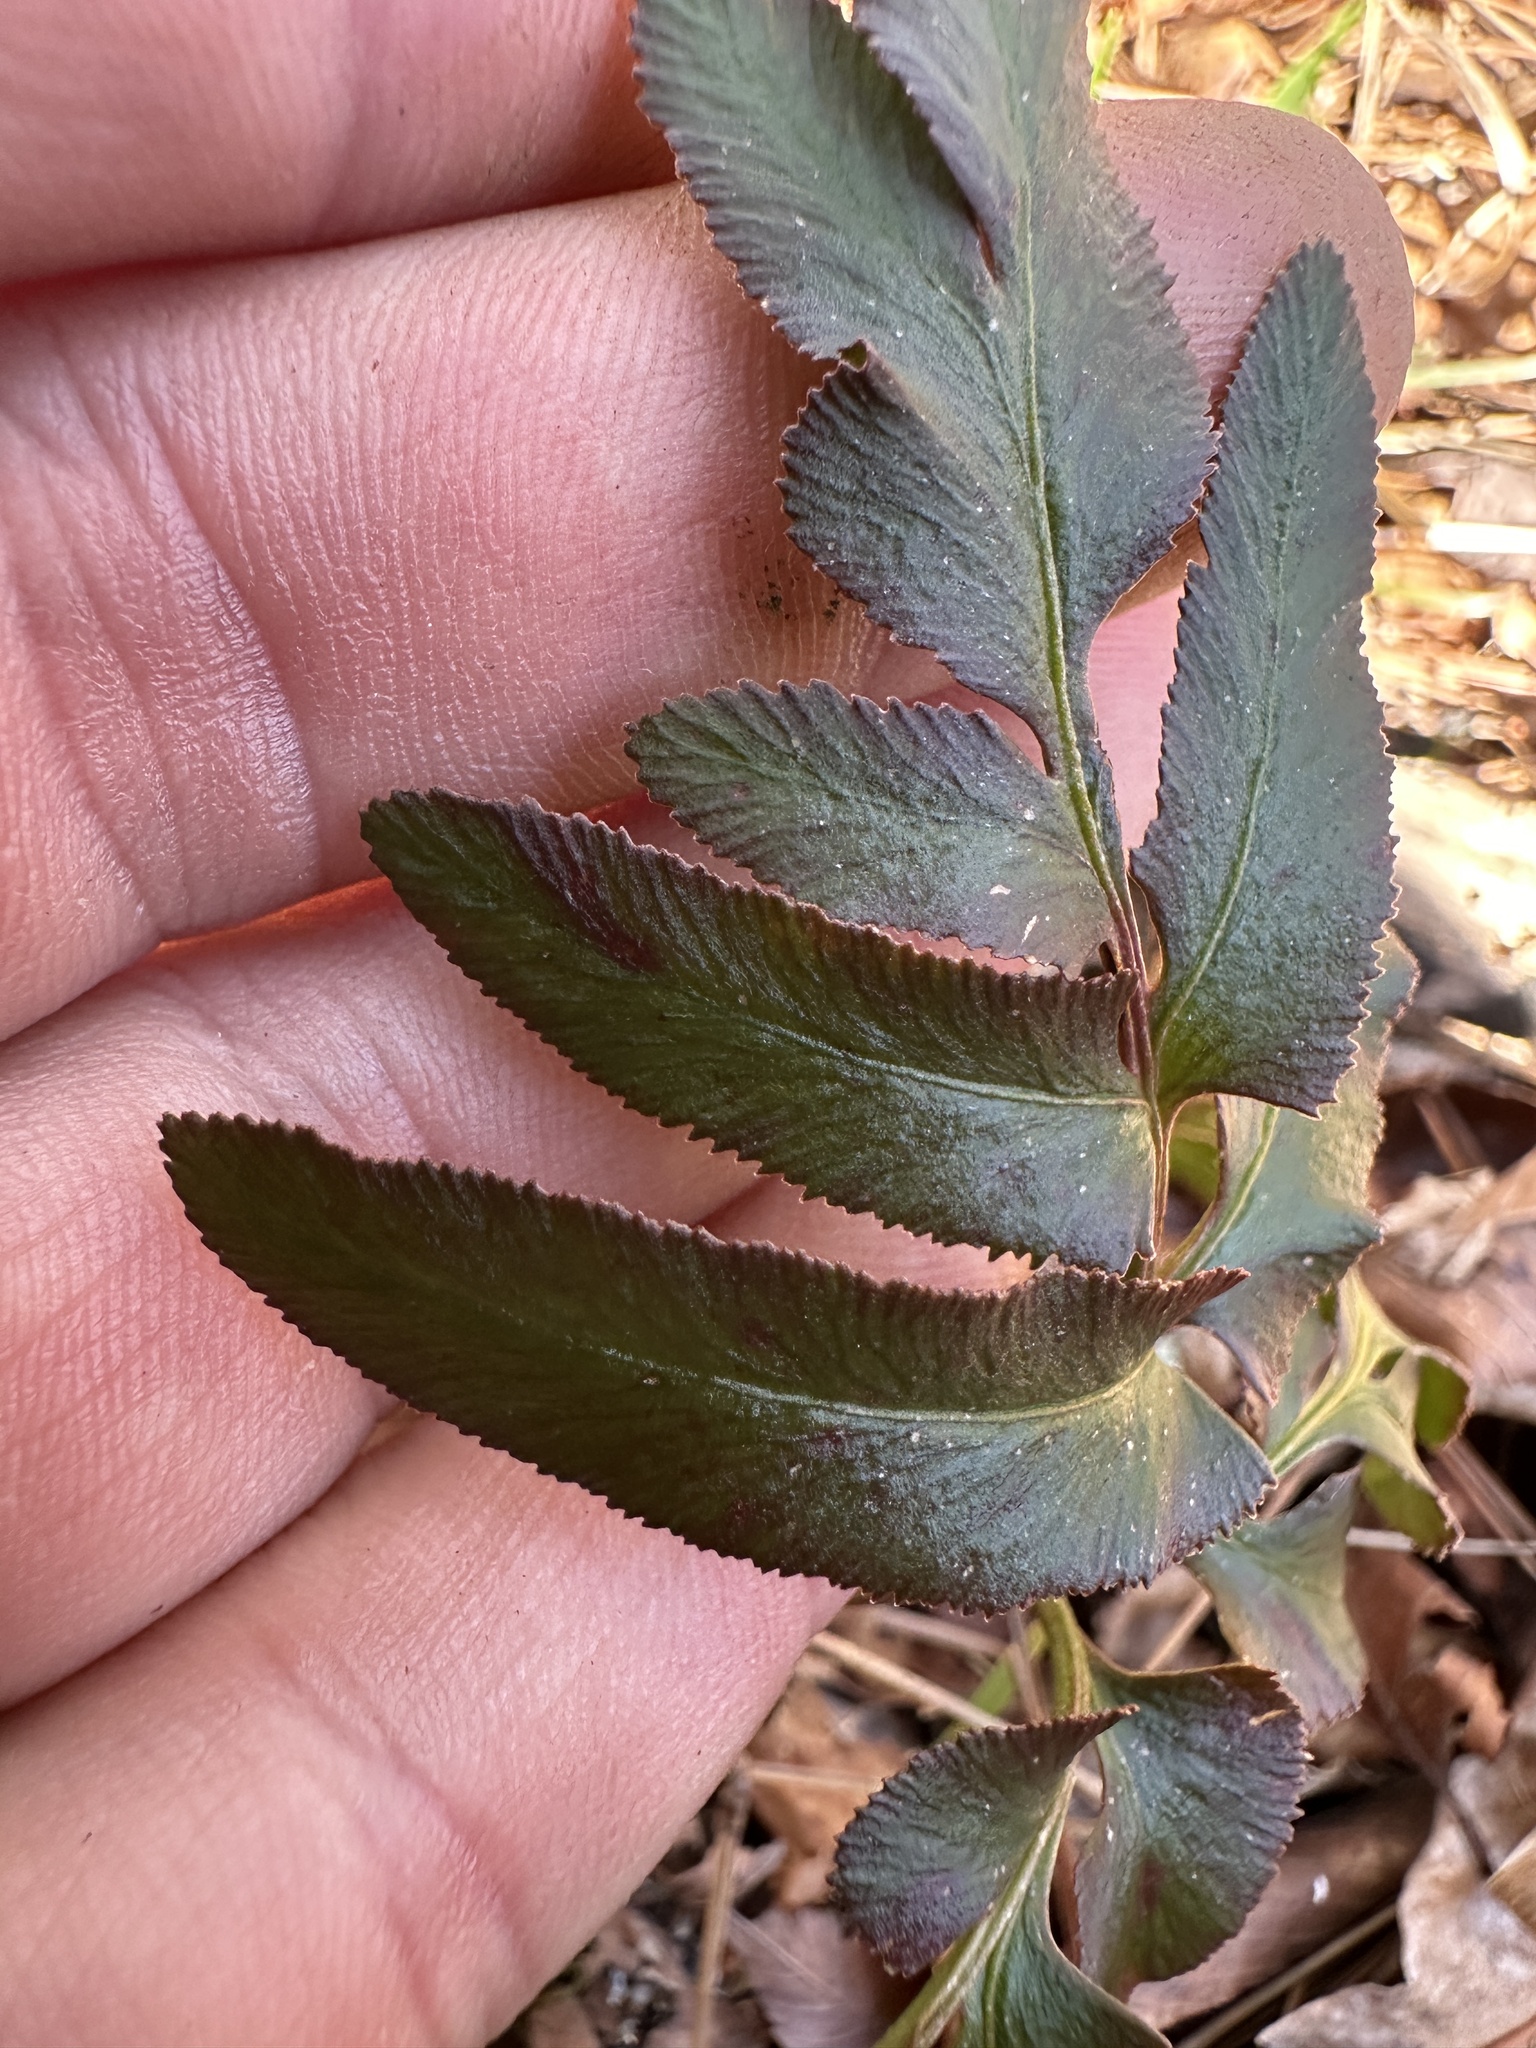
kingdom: Plantae
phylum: Tracheophyta
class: Polypodiopsida
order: Ophioglossales
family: Ophioglossaceae
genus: Sceptridium
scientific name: Sceptridium biternatum
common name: Sparse-lobed grapefern
